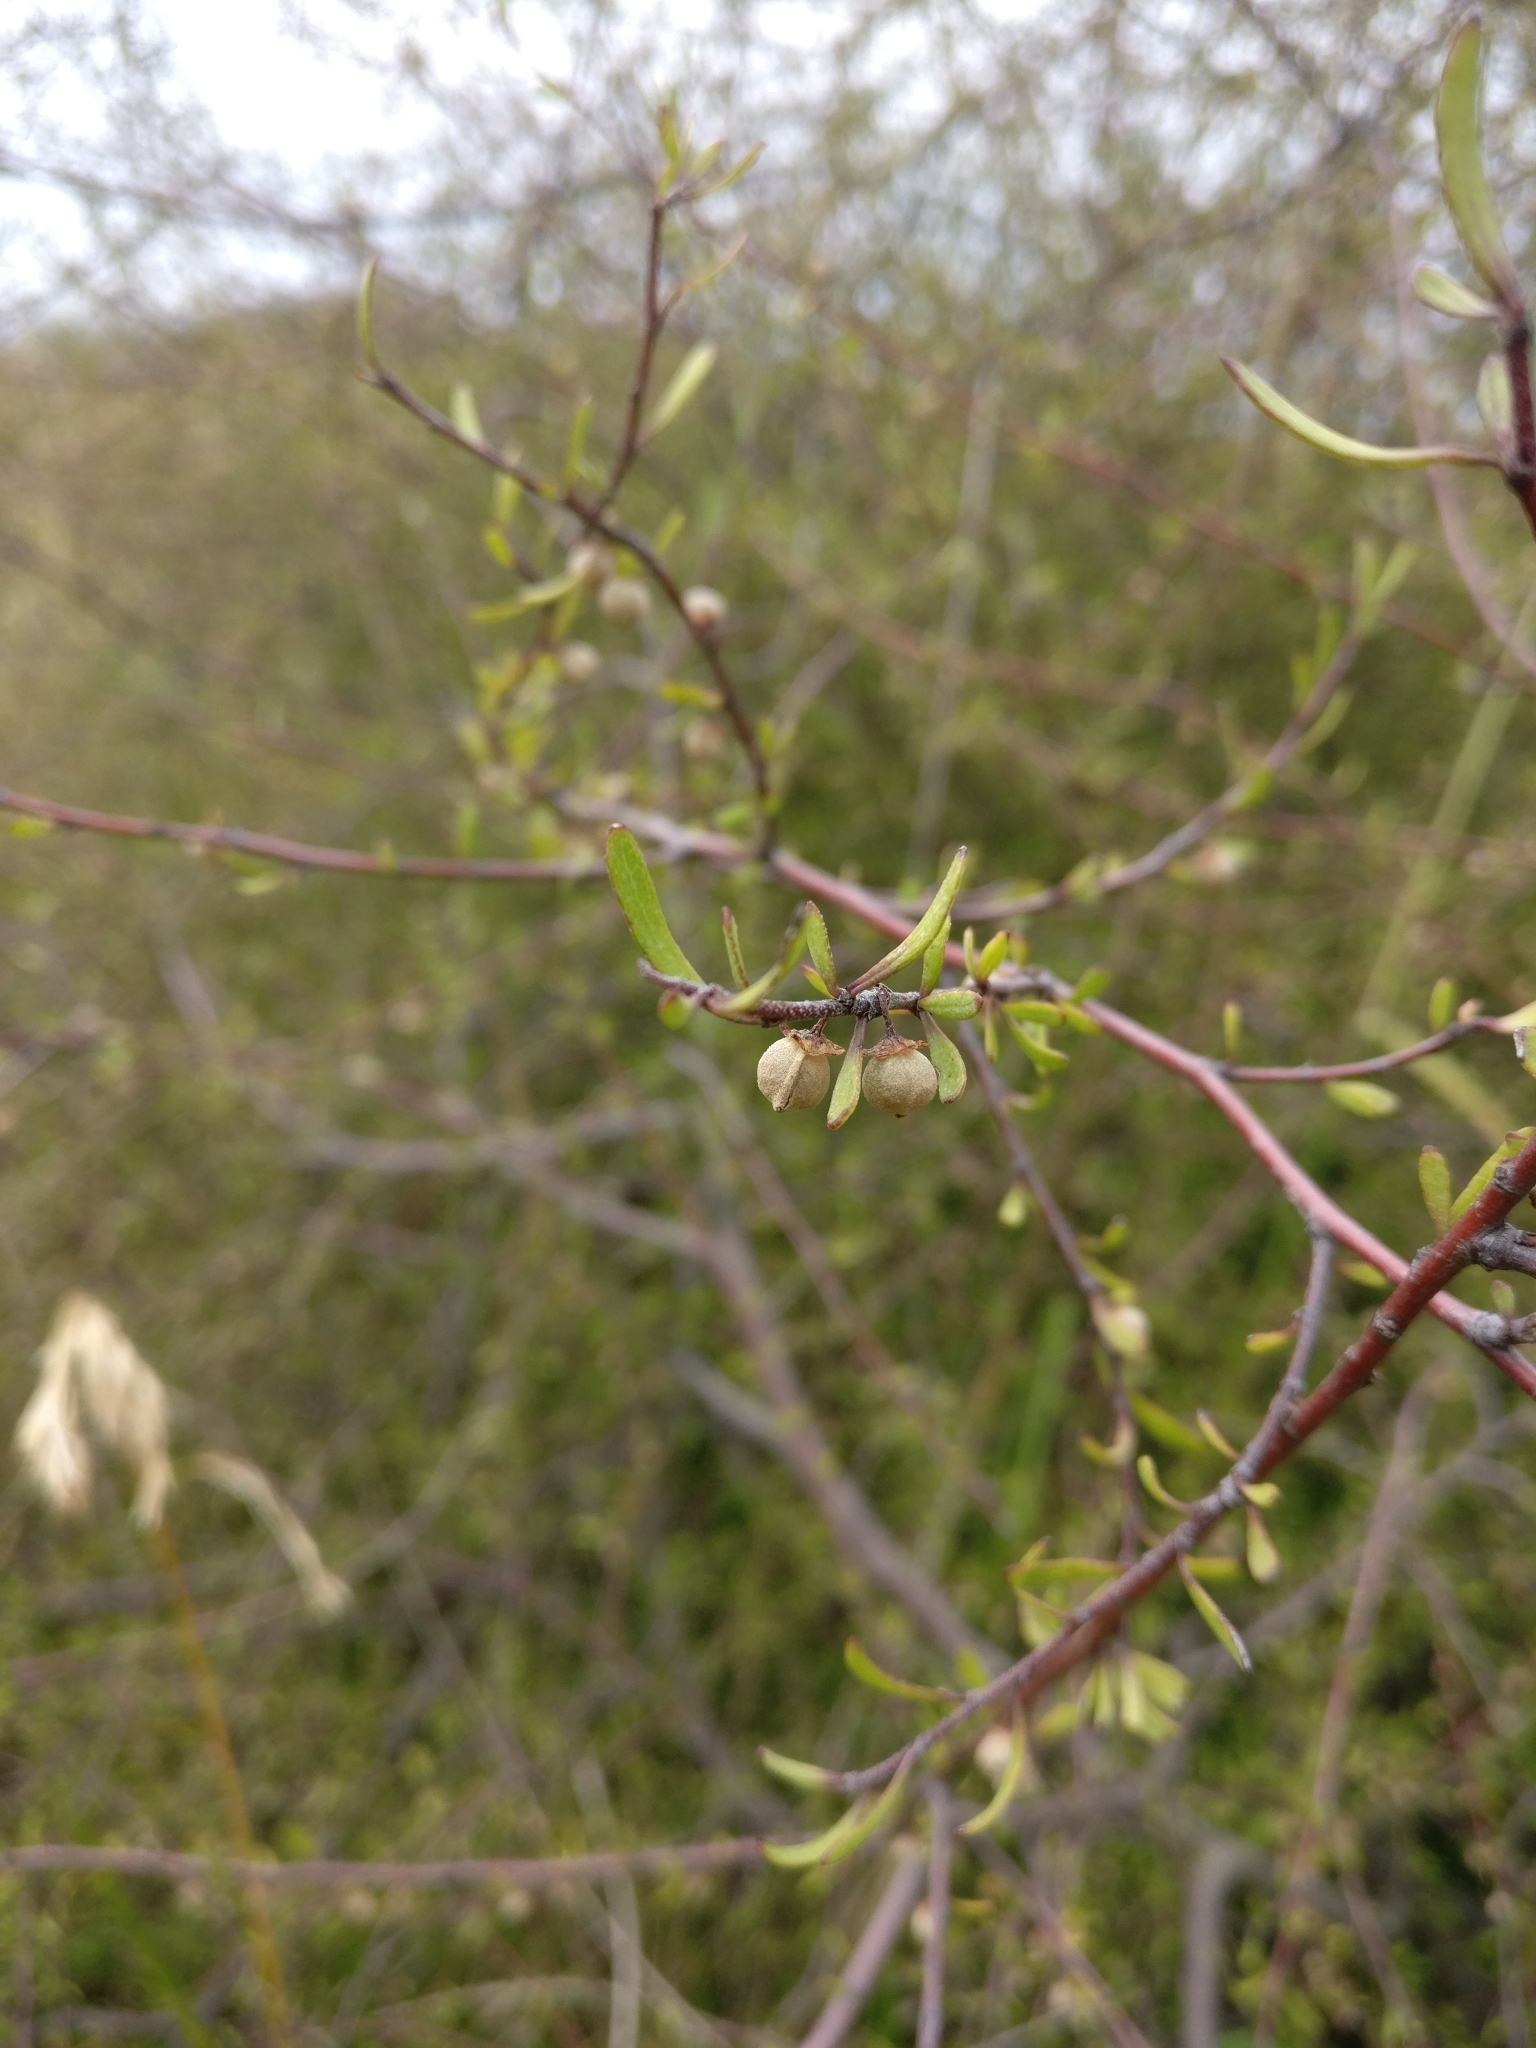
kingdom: Plantae
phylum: Tracheophyta
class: Magnoliopsida
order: Malvales
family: Malvaceae
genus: Plagianthus
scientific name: Plagianthus divaricatus
